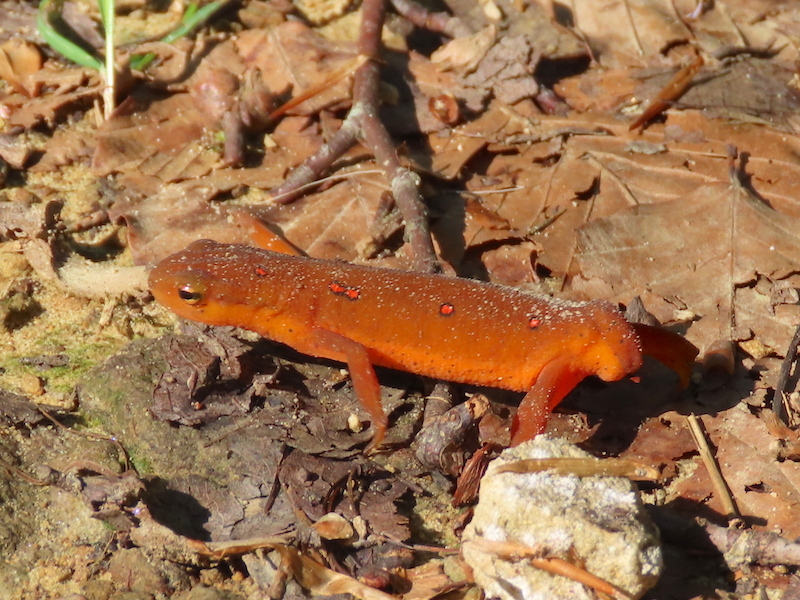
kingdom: Animalia
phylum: Chordata
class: Amphibia
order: Caudata
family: Salamandridae
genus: Notophthalmus
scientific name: Notophthalmus viridescens
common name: Eastern newt
